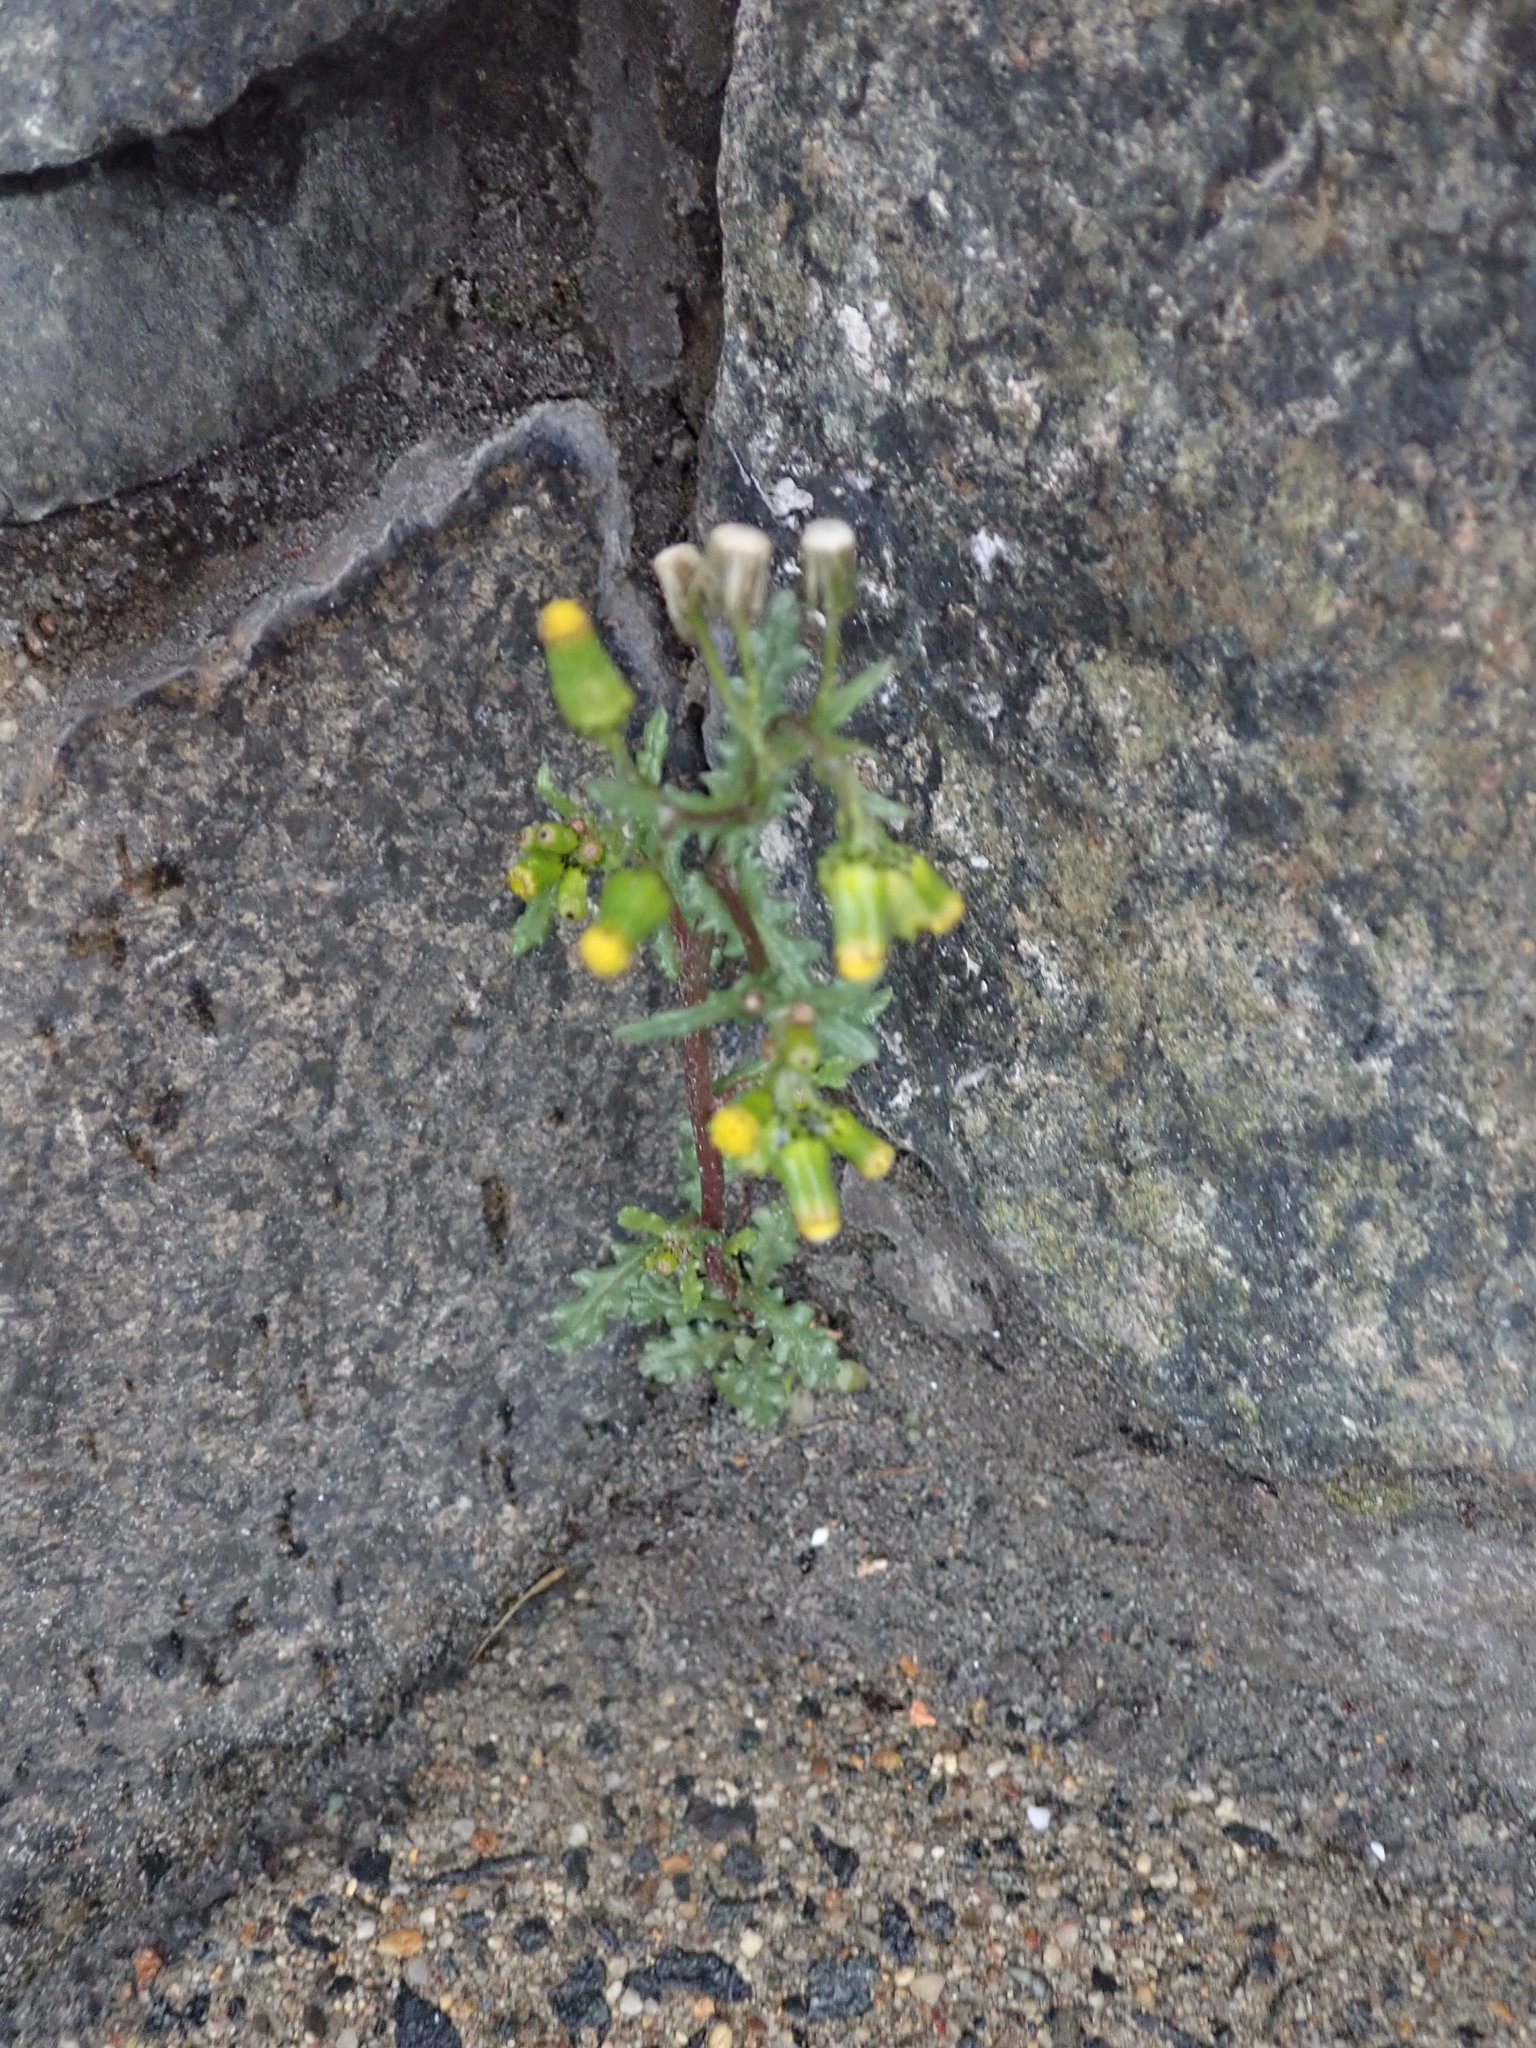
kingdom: Plantae
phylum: Tracheophyta
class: Magnoliopsida
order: Asterales
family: Asteraceae
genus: Senecio
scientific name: Senecio vulgaris
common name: Old-man-in-the-spring
